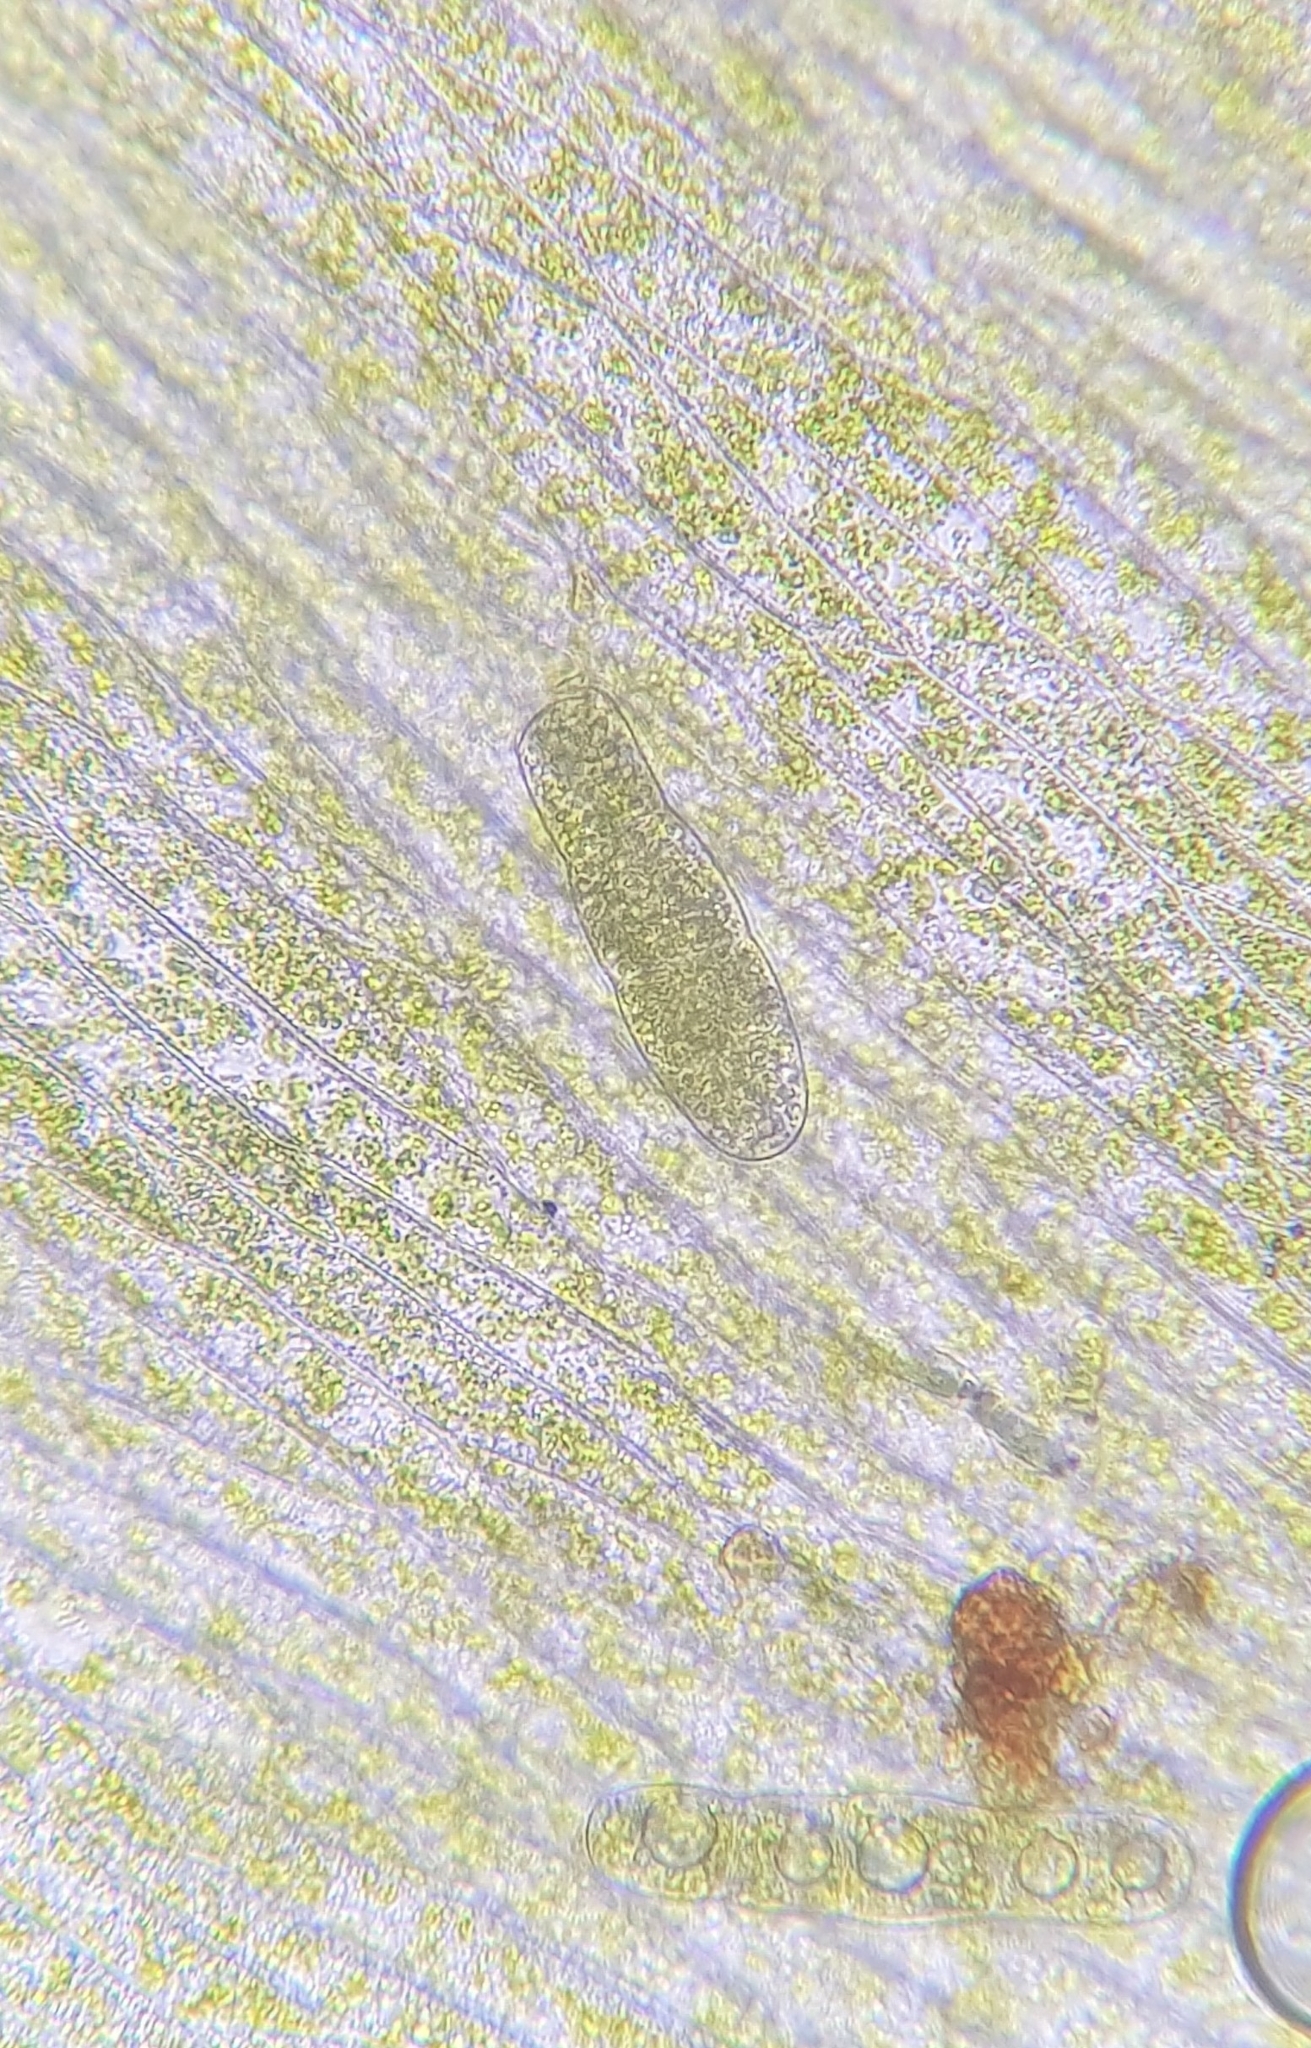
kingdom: Plantae
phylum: Bryophyta
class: Bryopsida
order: Hypnales
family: Plagiotheciaceae
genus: Plagiothecium
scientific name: Plagiothecium denticulatum
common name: Dented silk moss
